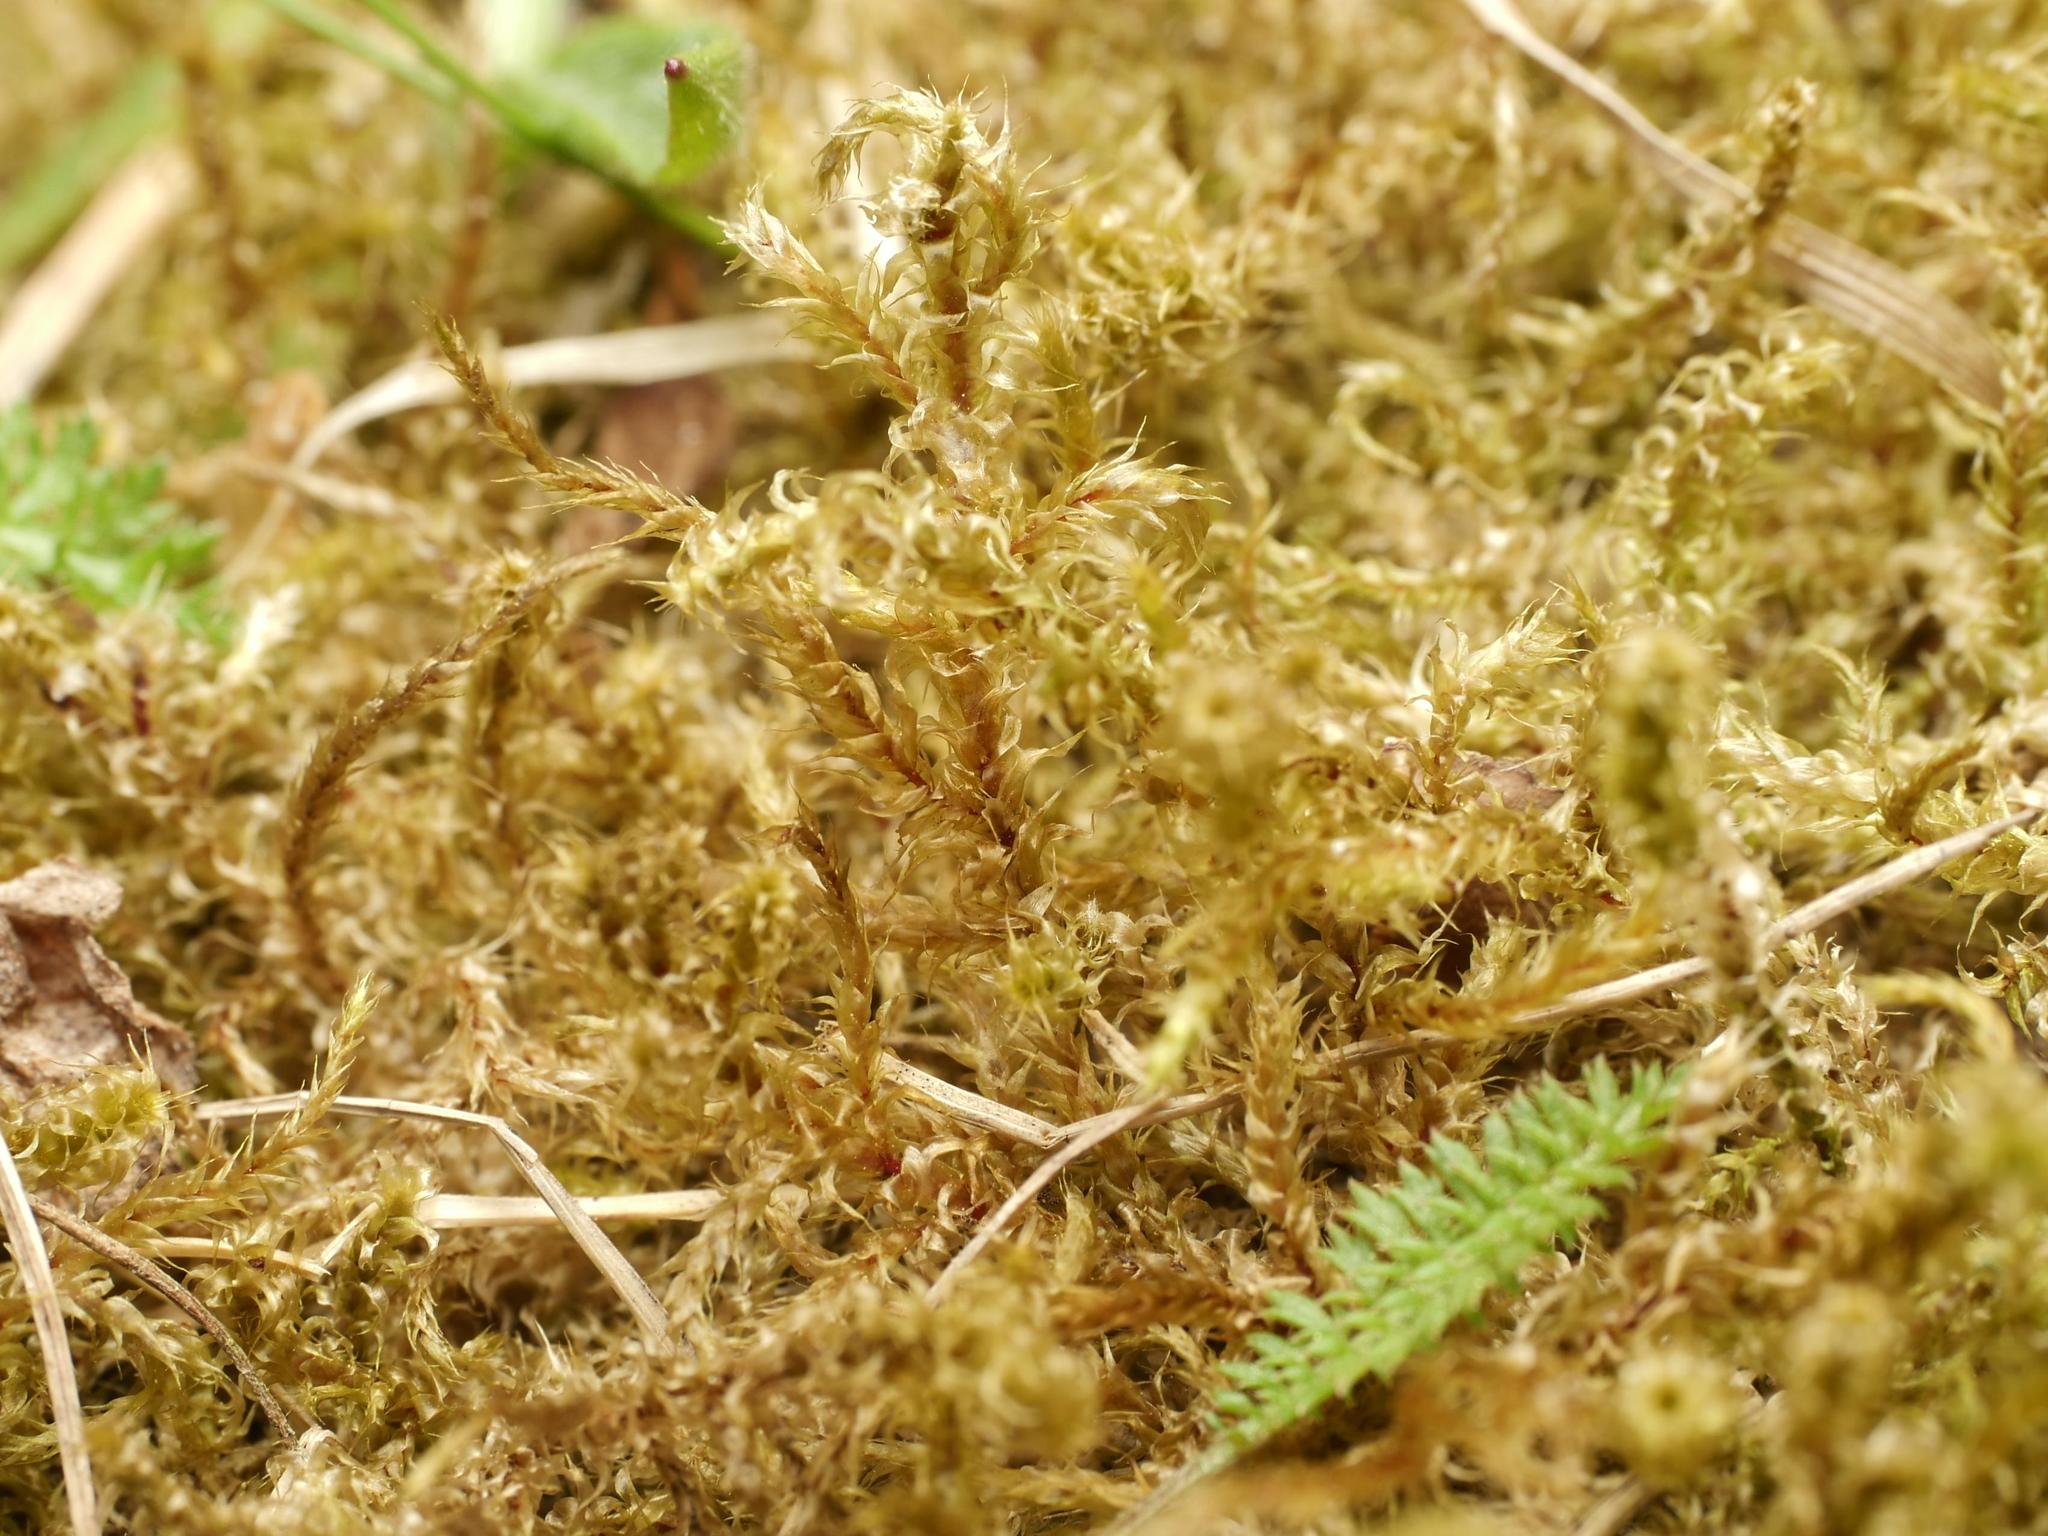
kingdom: Plantae
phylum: Bryophyta
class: Bryopsida
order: Hypnales
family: Hylocomiaceae
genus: Rhytidiadelphus
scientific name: Rhytidiadelphus squarrosus
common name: Springy turf-moss
